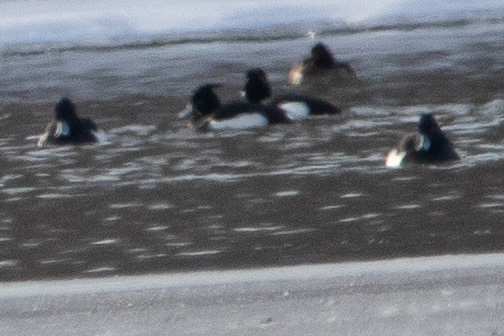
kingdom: Animalia
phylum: Chordata
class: Aves
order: Anseriformes
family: Anatidae
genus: Aythya
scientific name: Aythya fuligula
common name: Tufted duck
